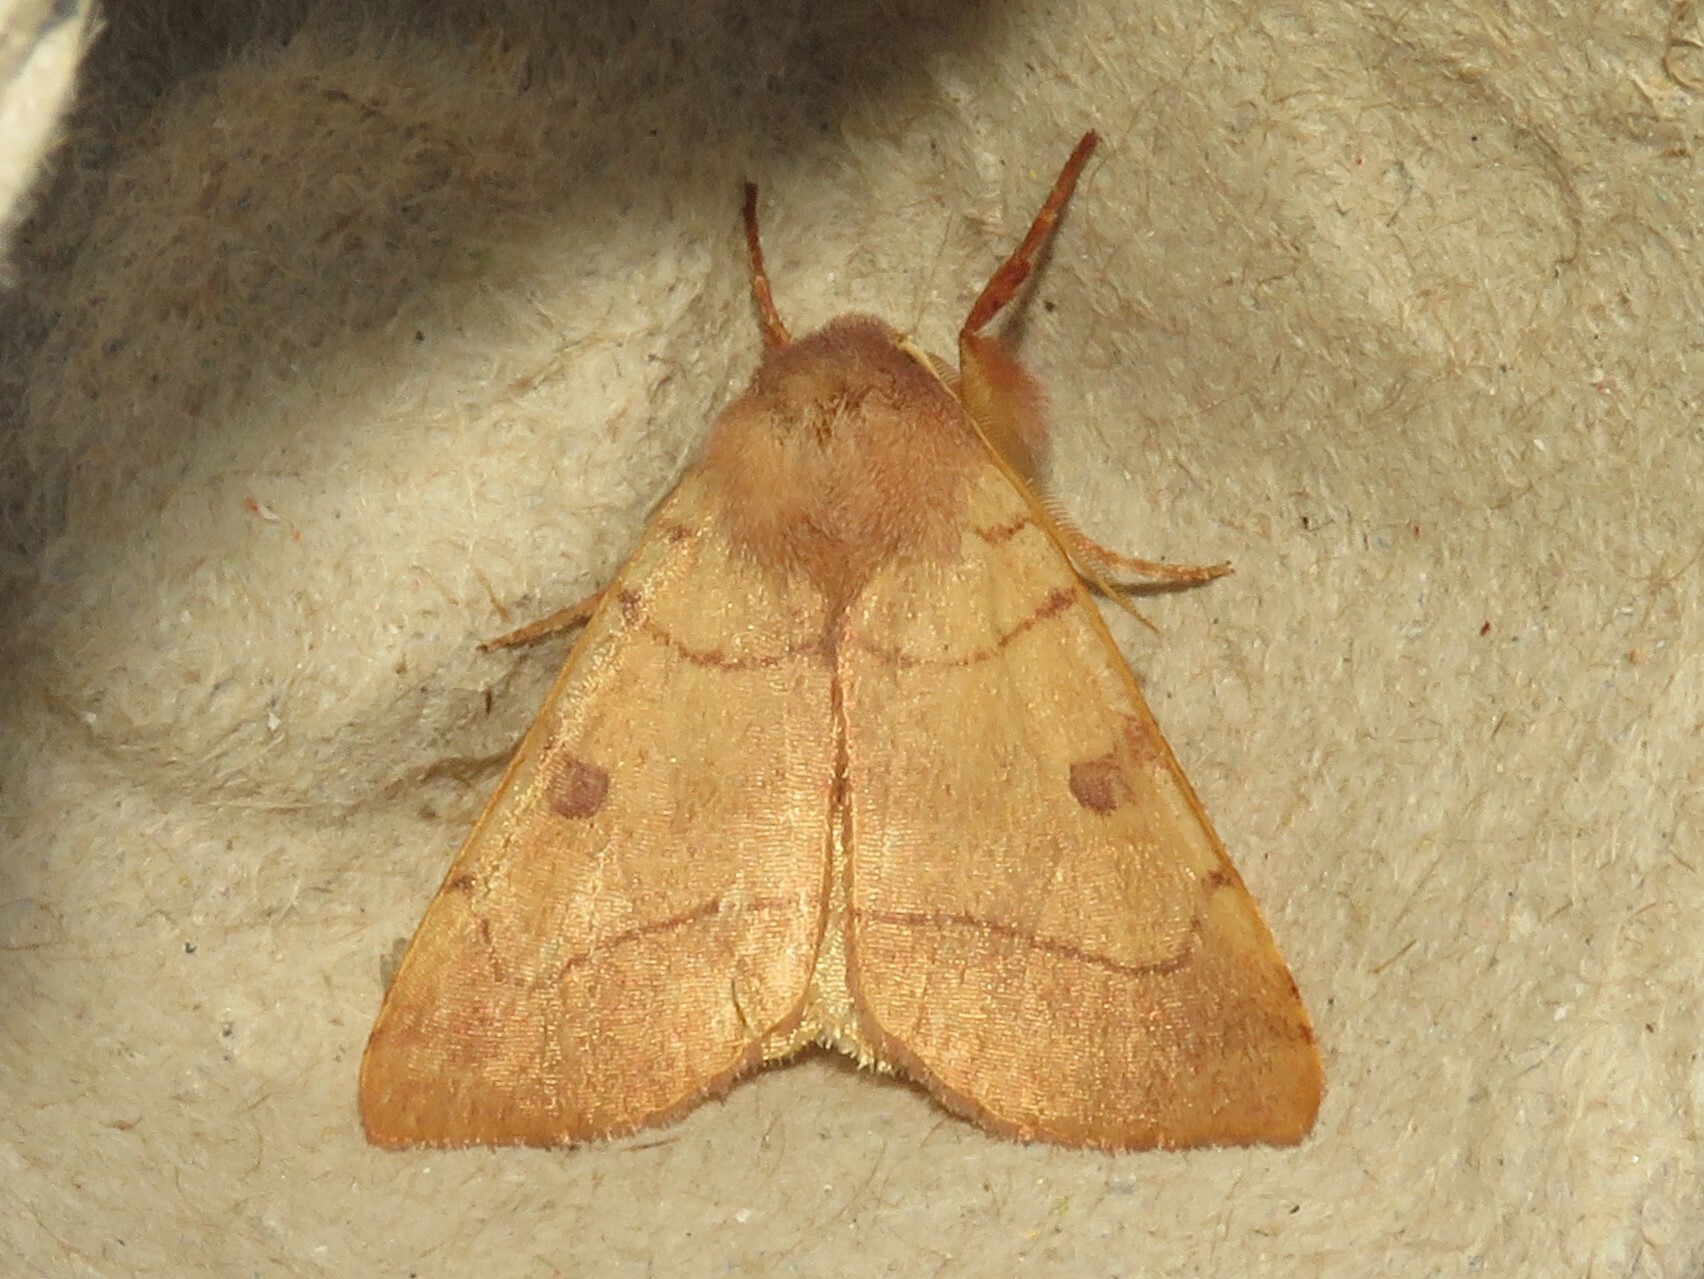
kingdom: Animalia
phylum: Arthropoda
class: Insecta
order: Lepidoptera
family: Noctuidae
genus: Choephora
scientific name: Choephora fungorum
